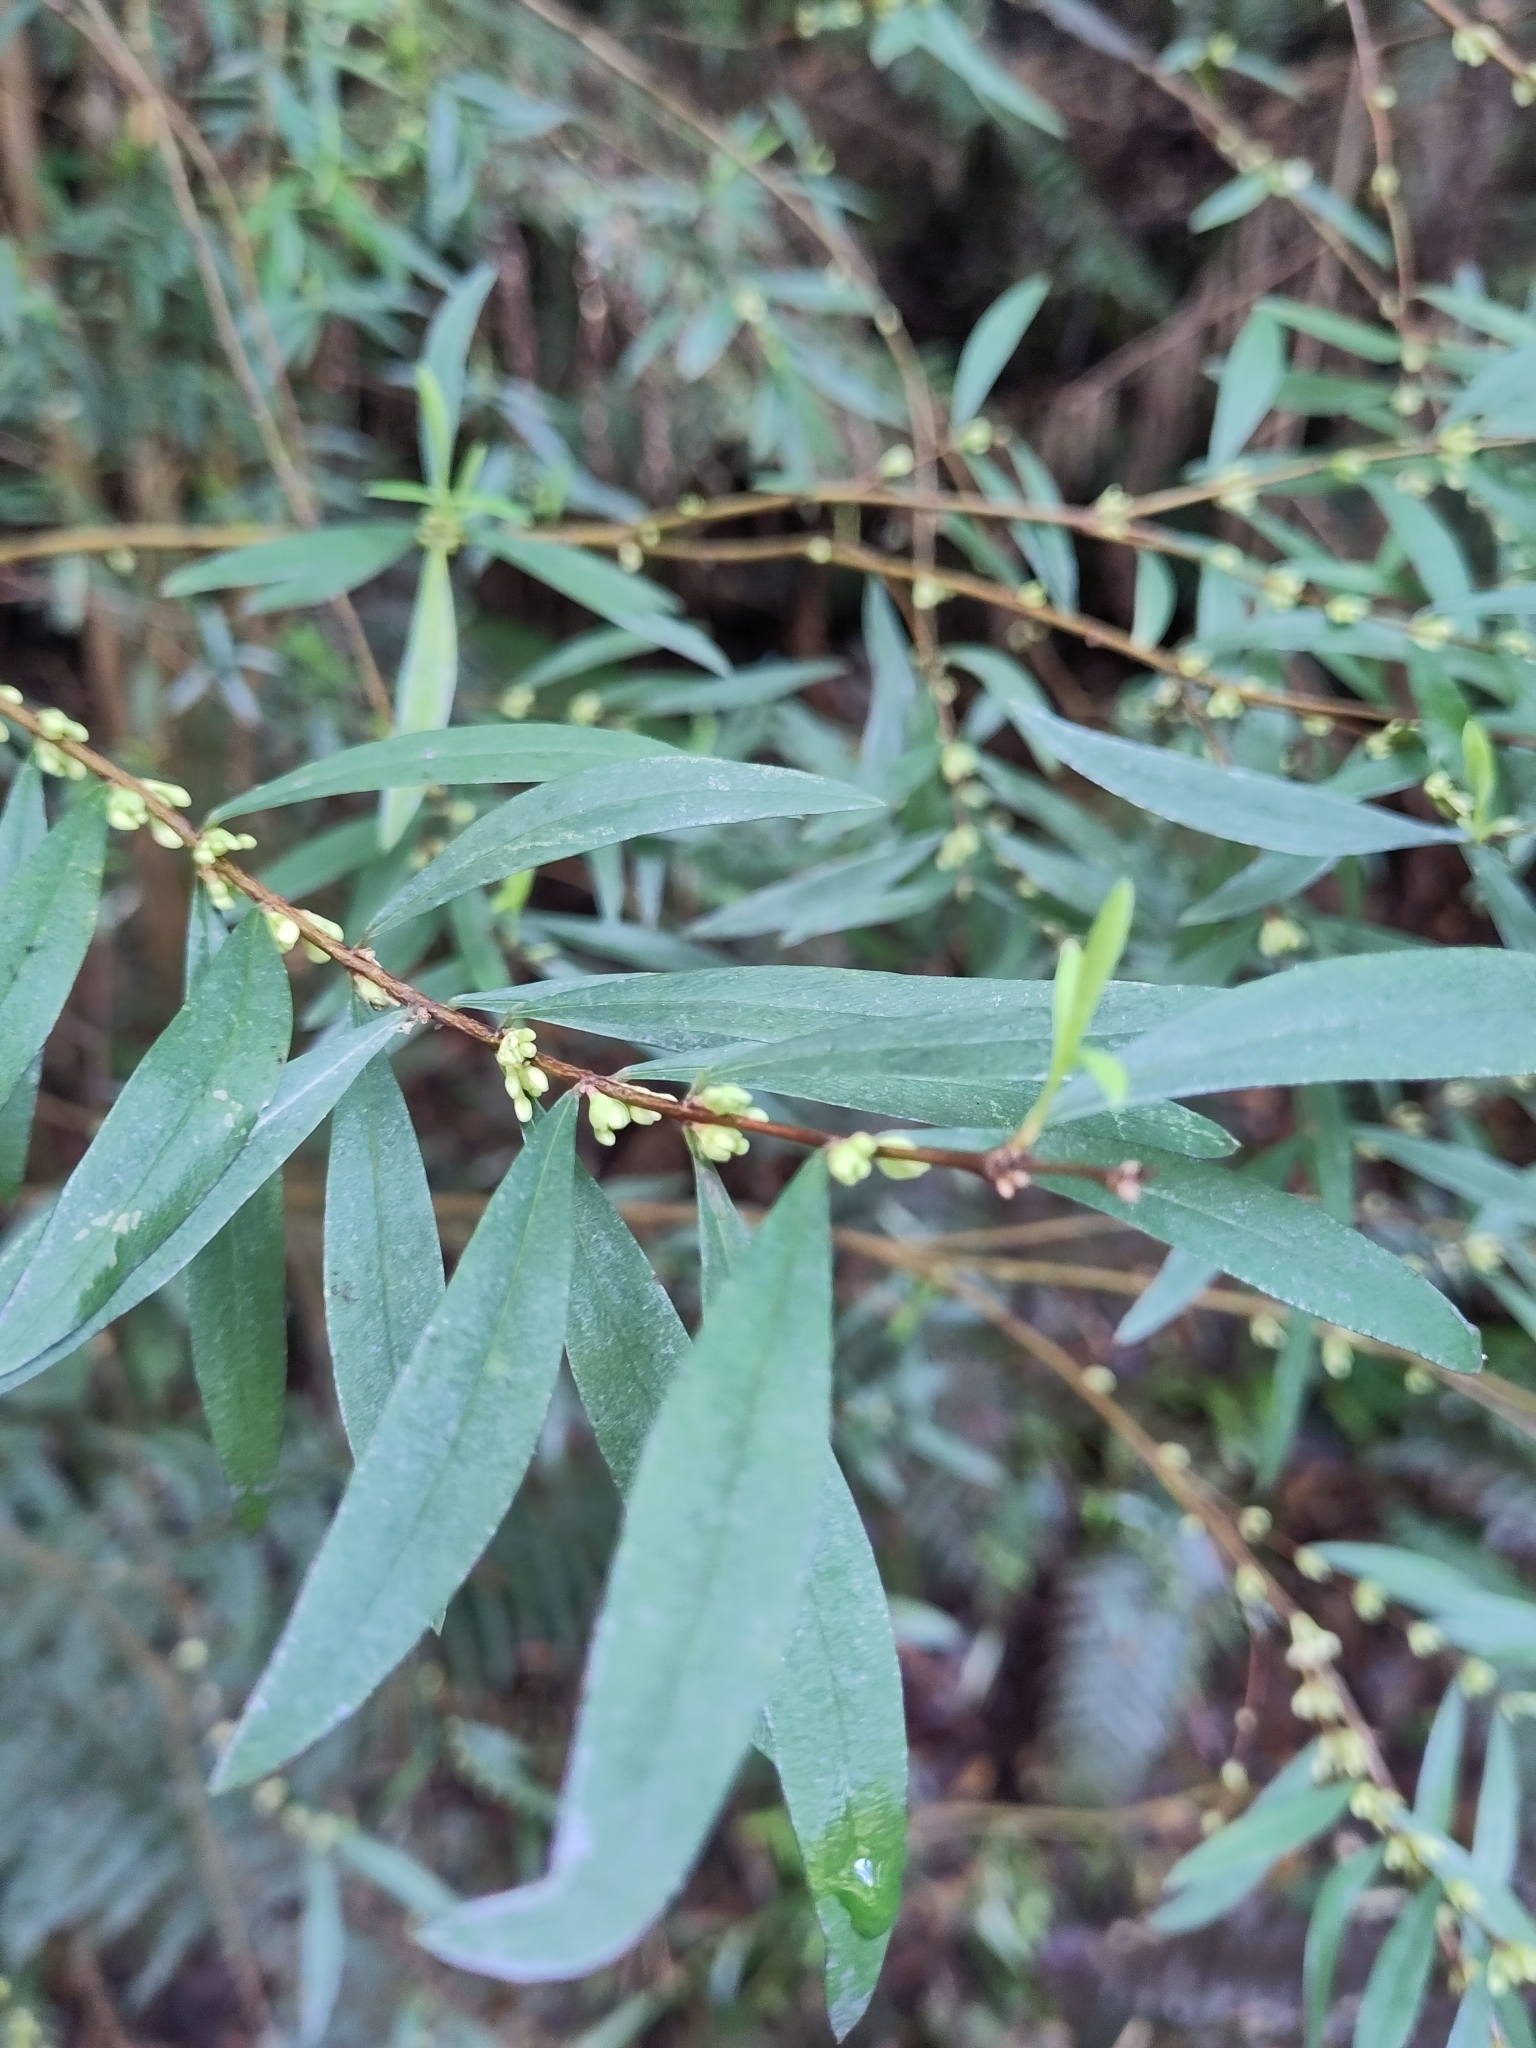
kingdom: Plantae
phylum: Tracheophyta
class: Magnoliopsida
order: Malvales
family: Thymelaeaceae
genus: Pimelea
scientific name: Pimelea axiflora
